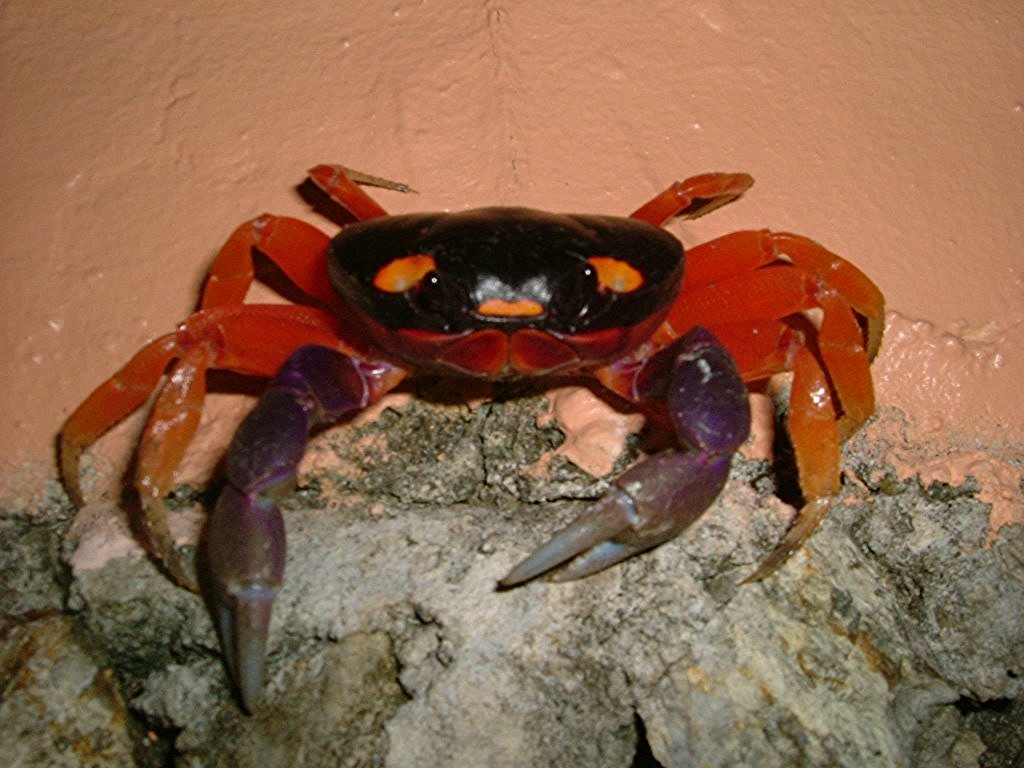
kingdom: Animalia
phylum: Arthropoda
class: Malacostraca
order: Decapoda
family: Gecarcinidae
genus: Gecarcinus
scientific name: Gecarcinus quadratus
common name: Halloween crab
